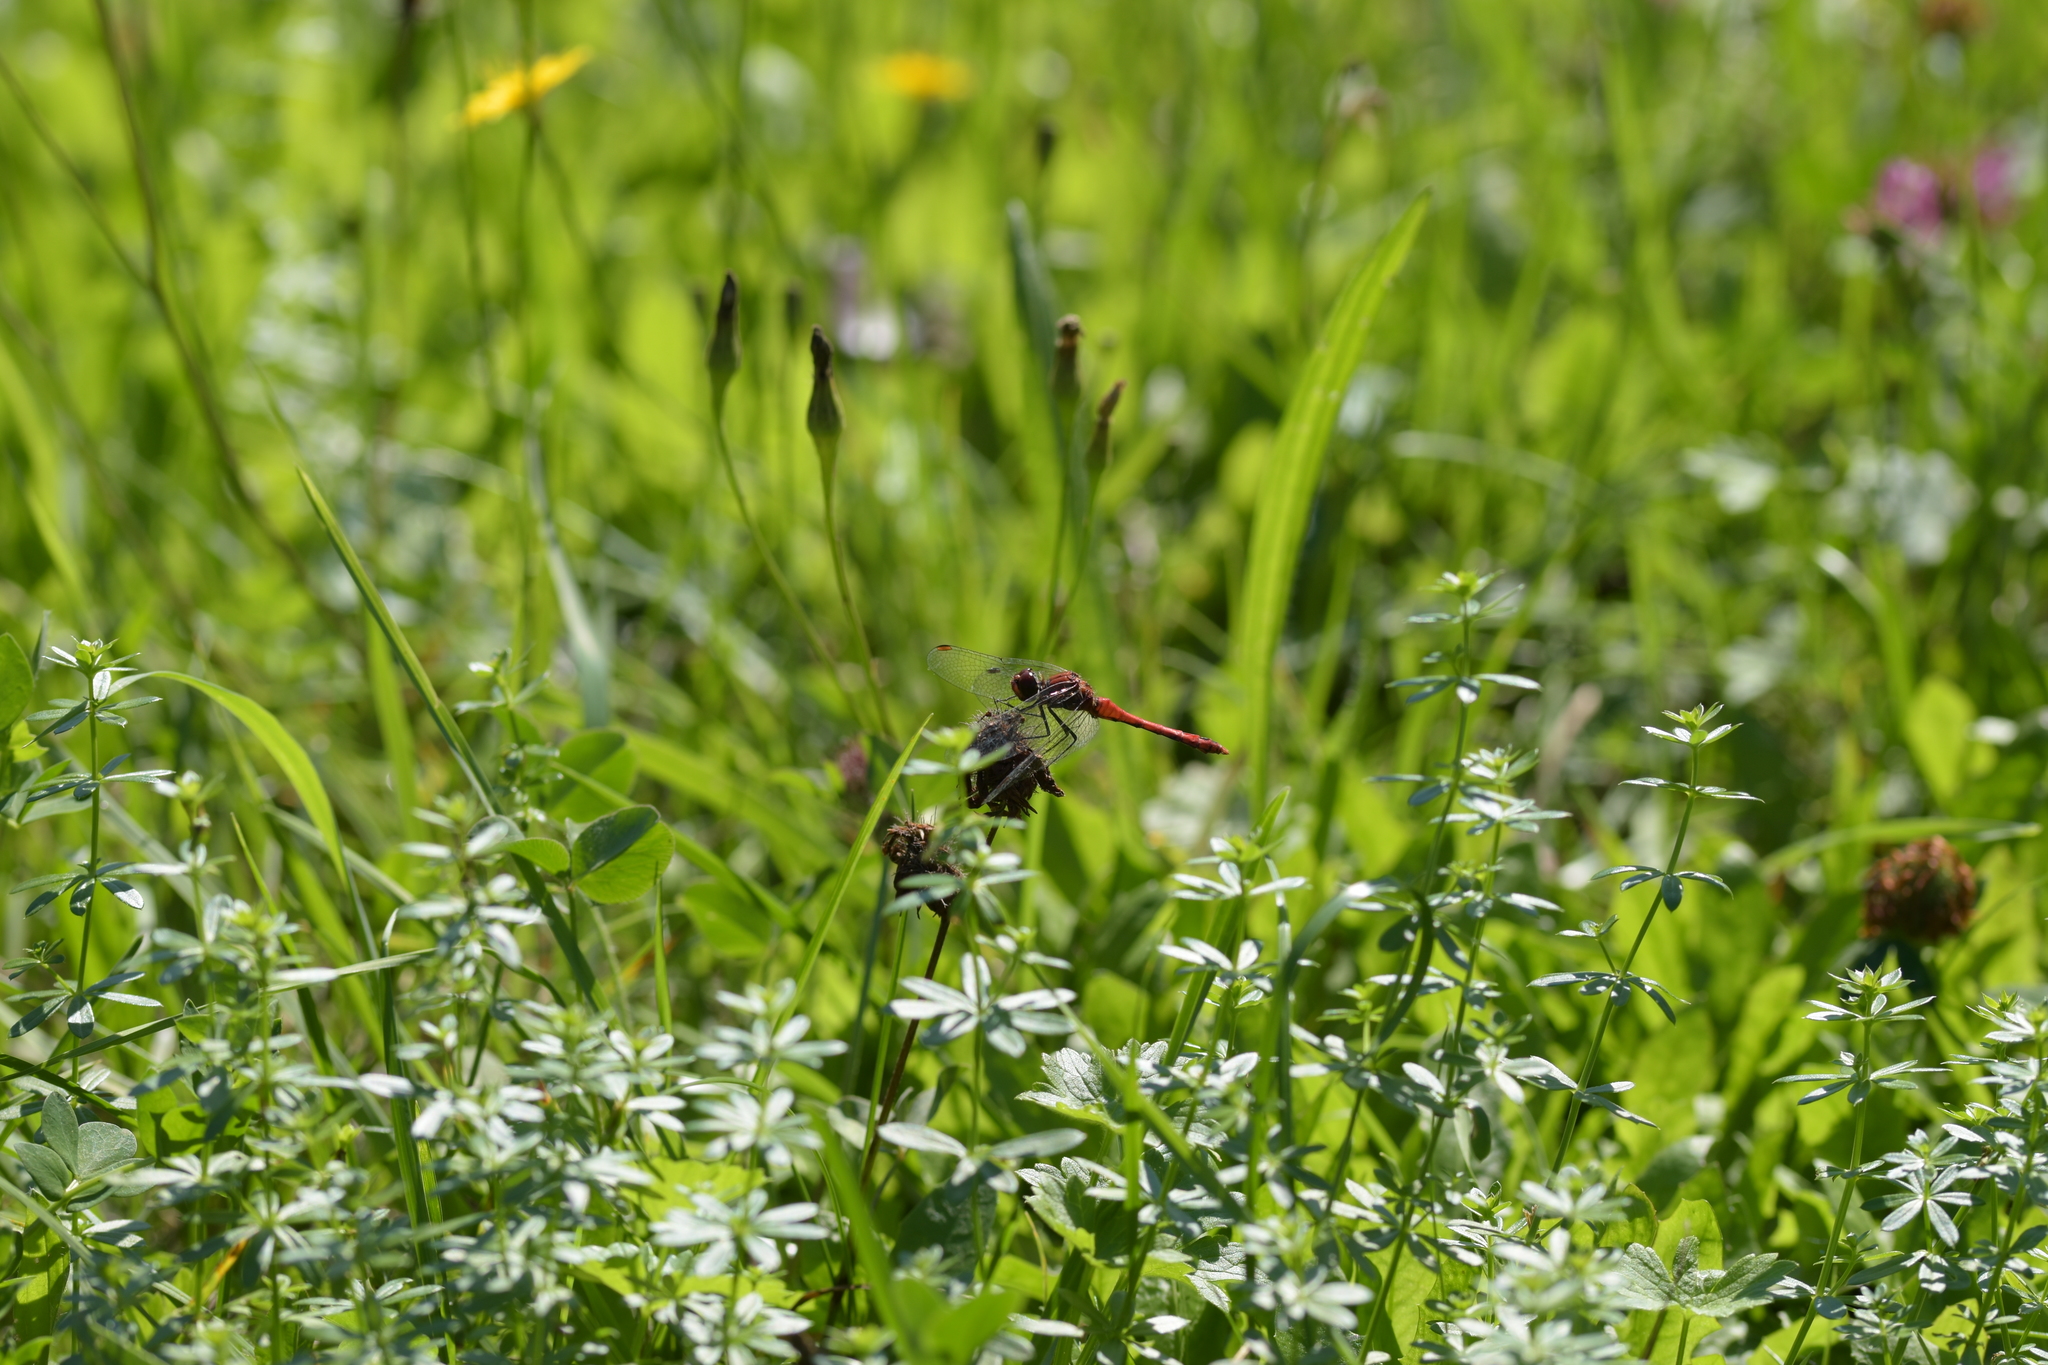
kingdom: Animalia
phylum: Arthropoda
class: Insecta
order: Odonata
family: Libellulidae
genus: Sympetrum
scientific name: Sympetrum sanguineum
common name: Ruddy darter
